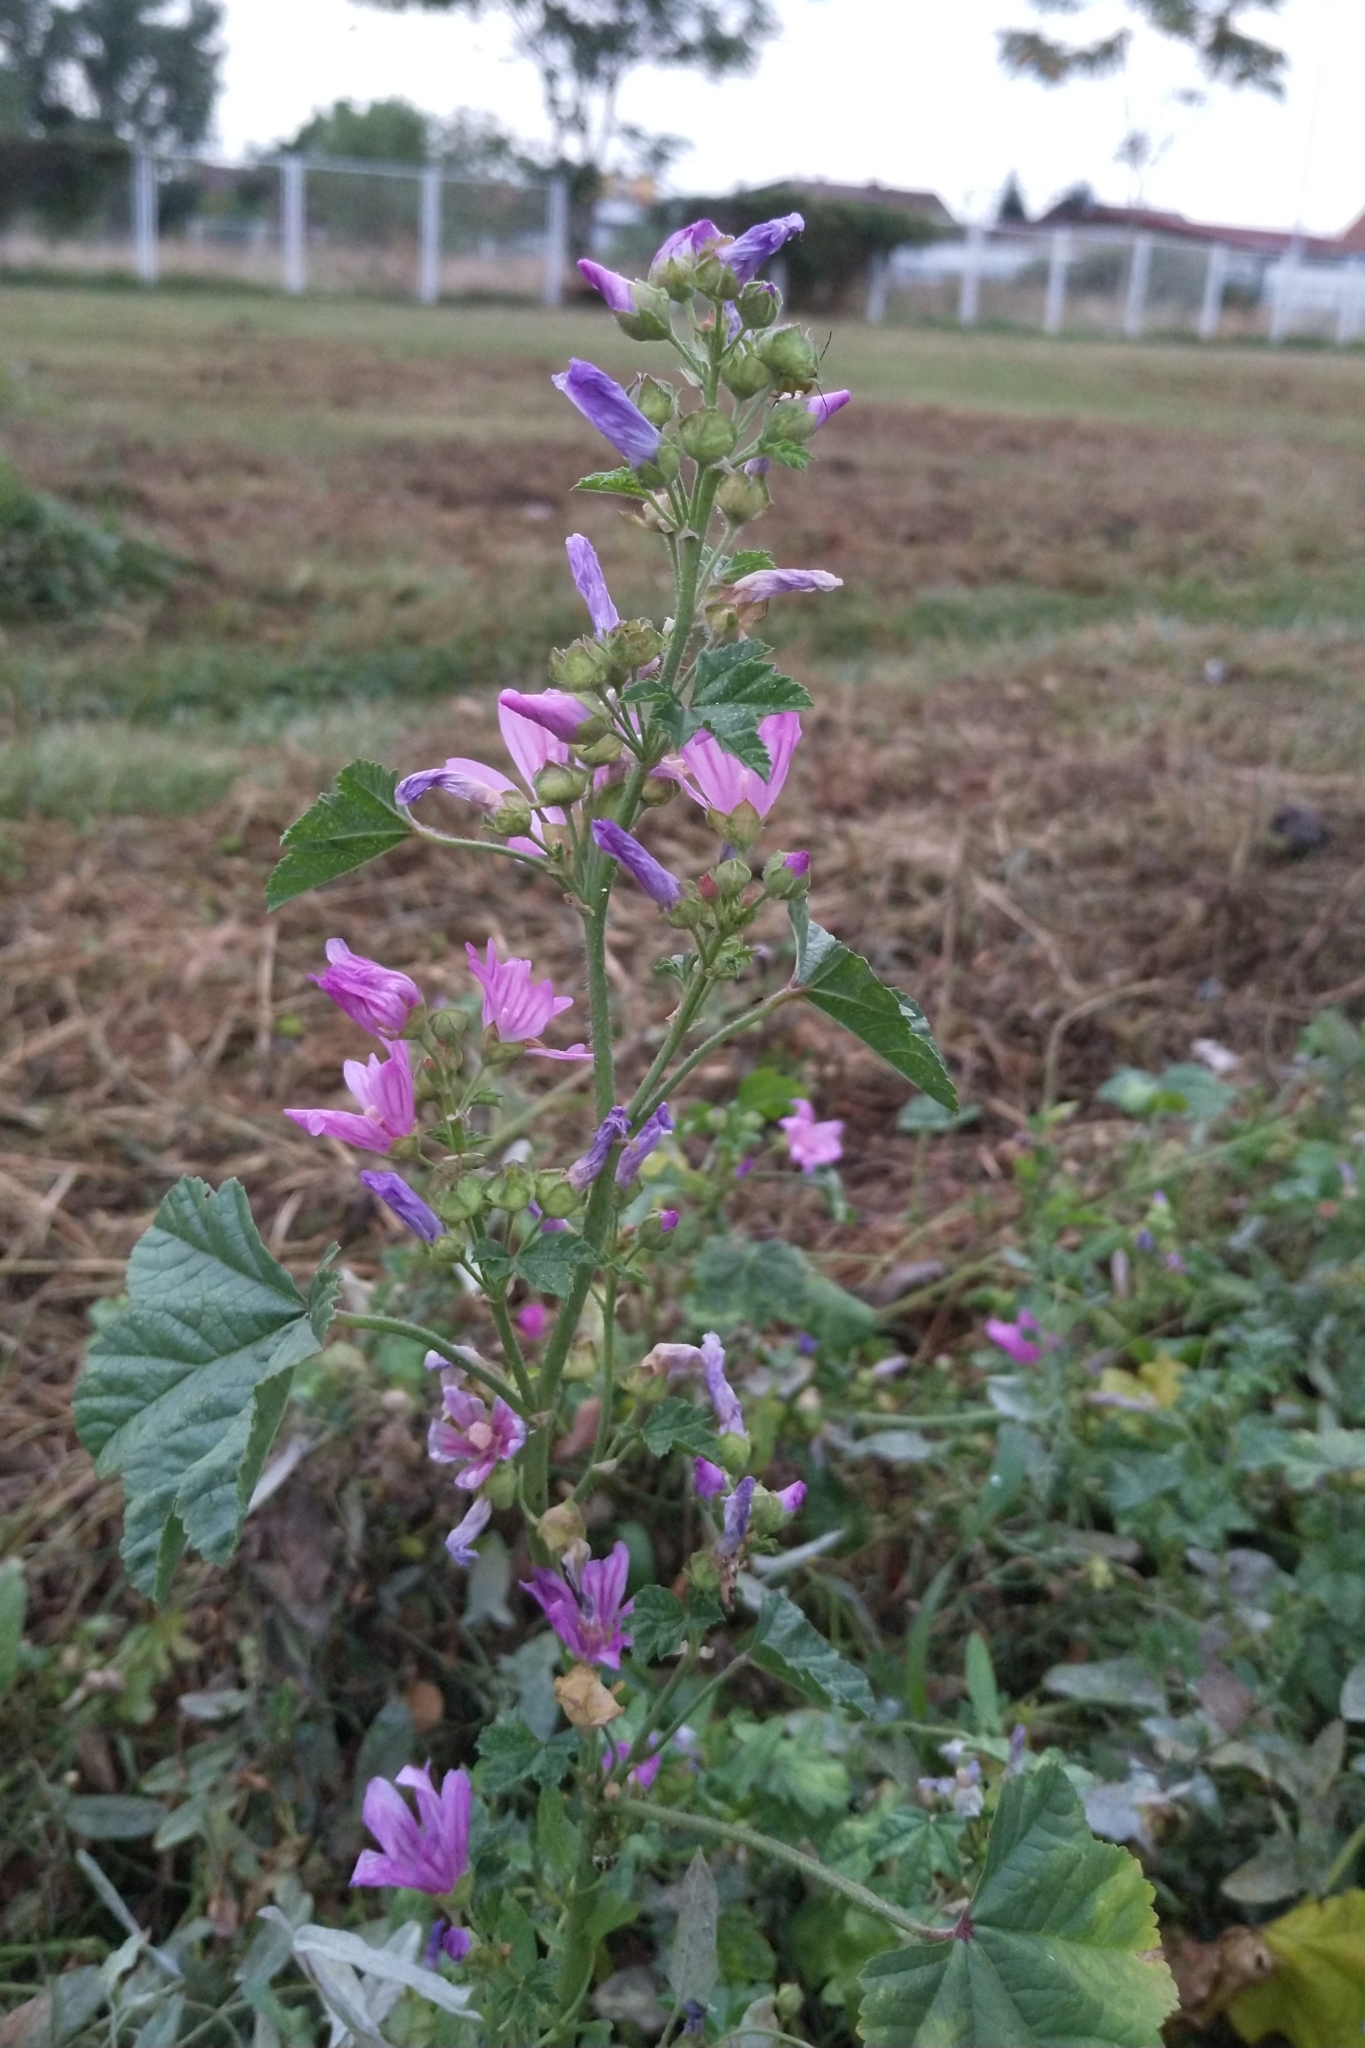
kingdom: Plantae
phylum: Tracheophyta
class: Magnoliopsida
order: Malvales
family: Malvaceae
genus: Malva
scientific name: Malva sylvestris
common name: Common mallow
